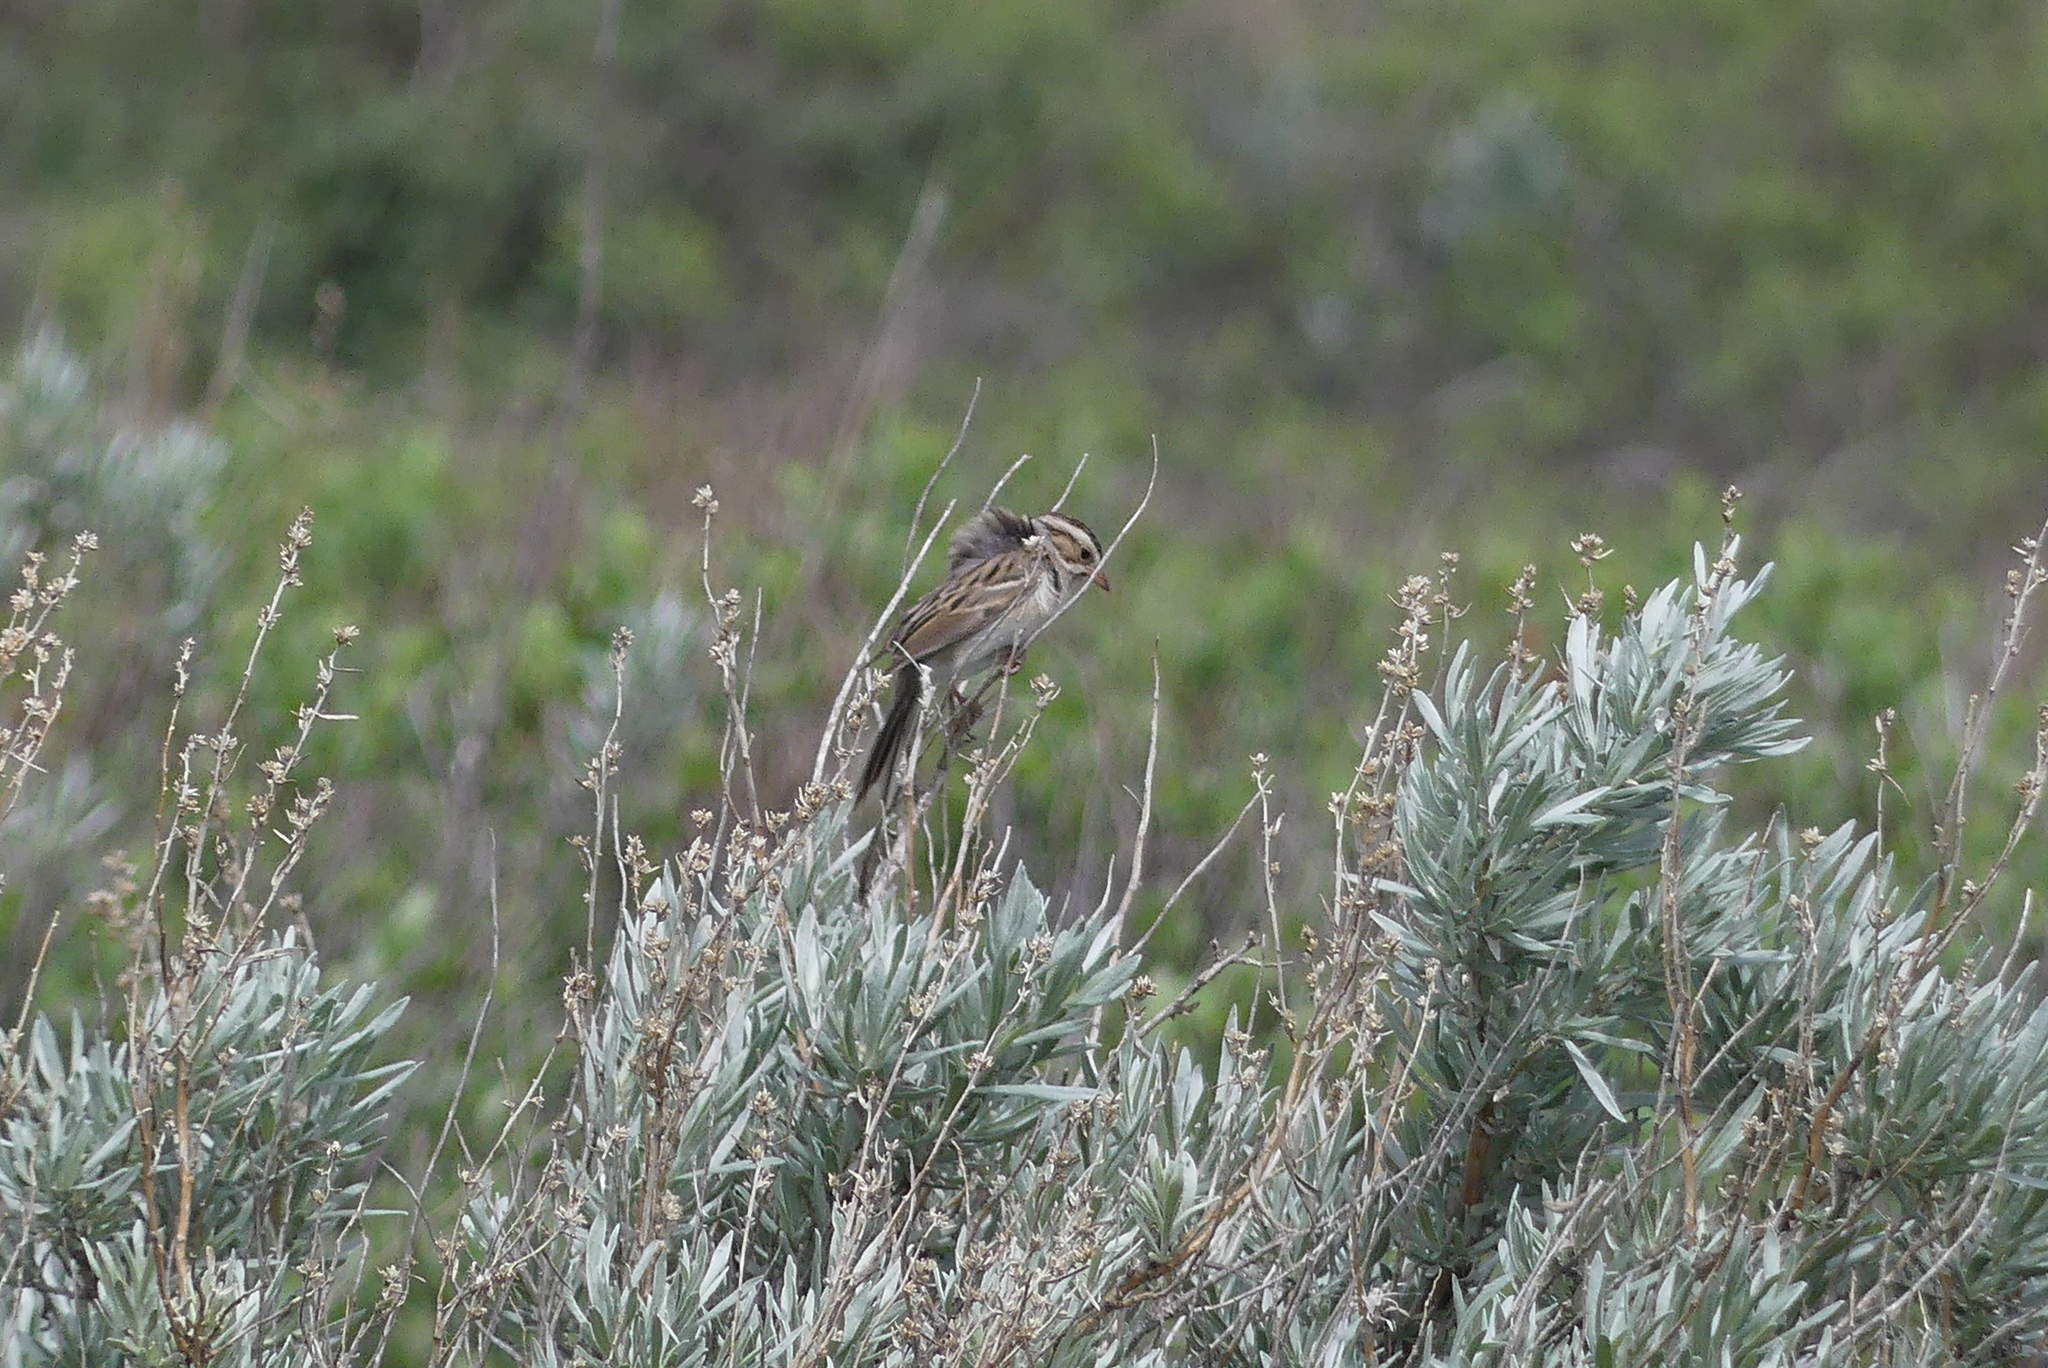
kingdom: Animalia
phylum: Chordata
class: Aves
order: Passeriformes
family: Passerellidae
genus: Spizella
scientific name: Spizella pallida
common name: Clay-colored sparrow
